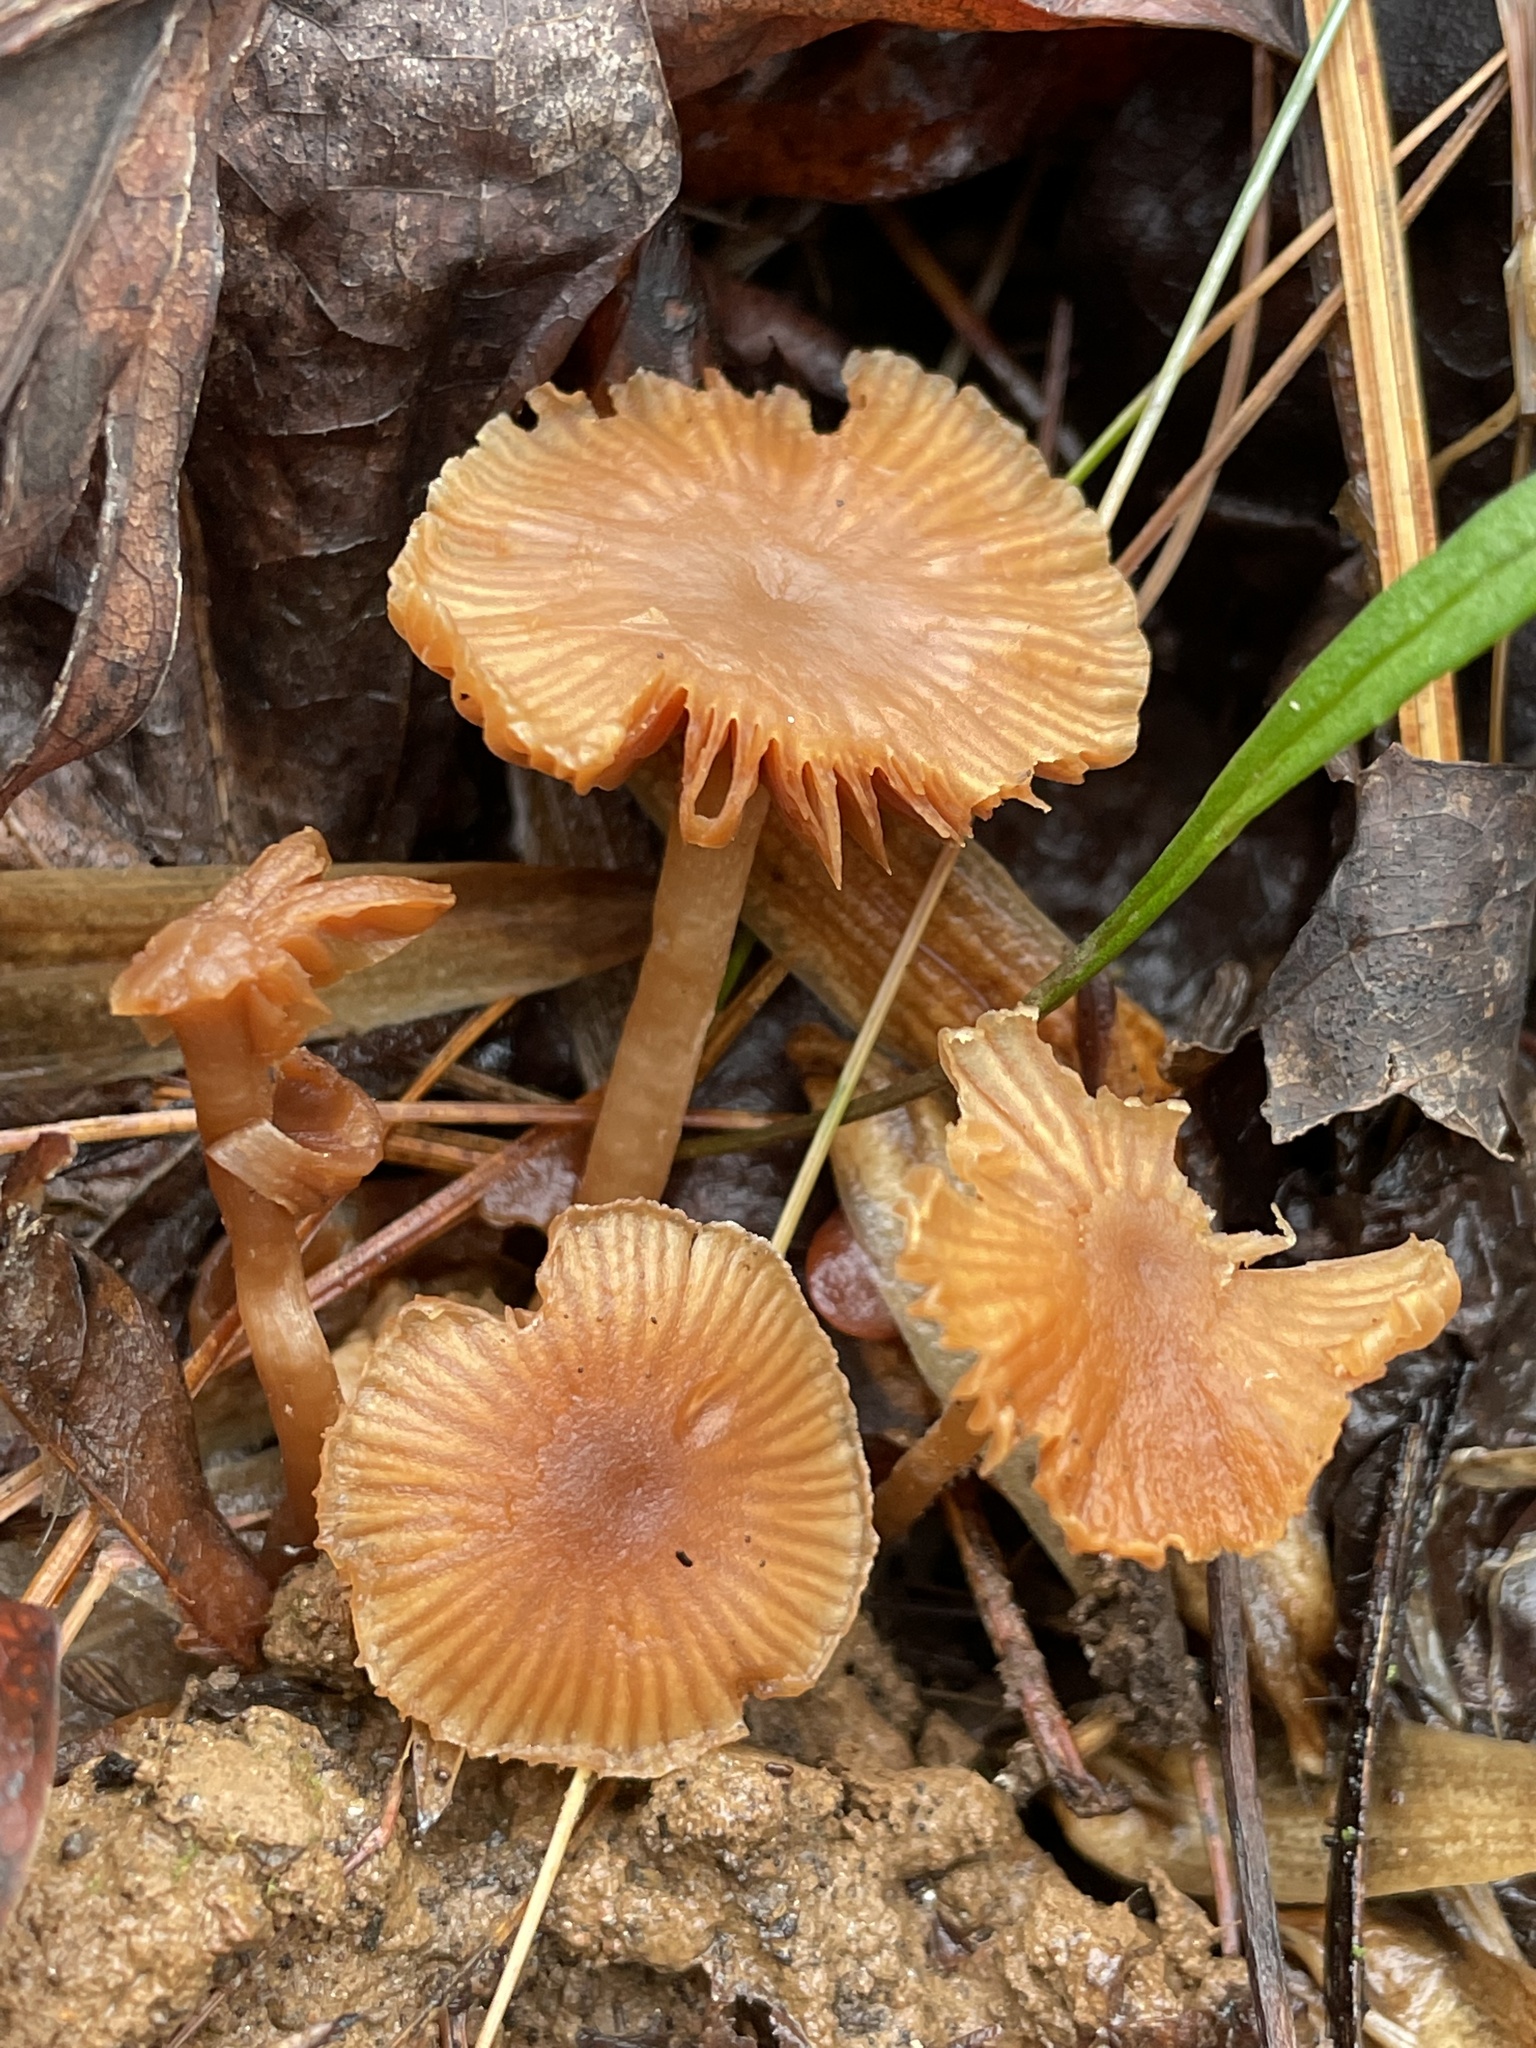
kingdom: Fungi
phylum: Basidiomycota
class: Agaricomycetes
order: Agaricales
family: Tubariaceae
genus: Tubaria
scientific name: Tubaria furfuracea
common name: Scurfy twiglet
